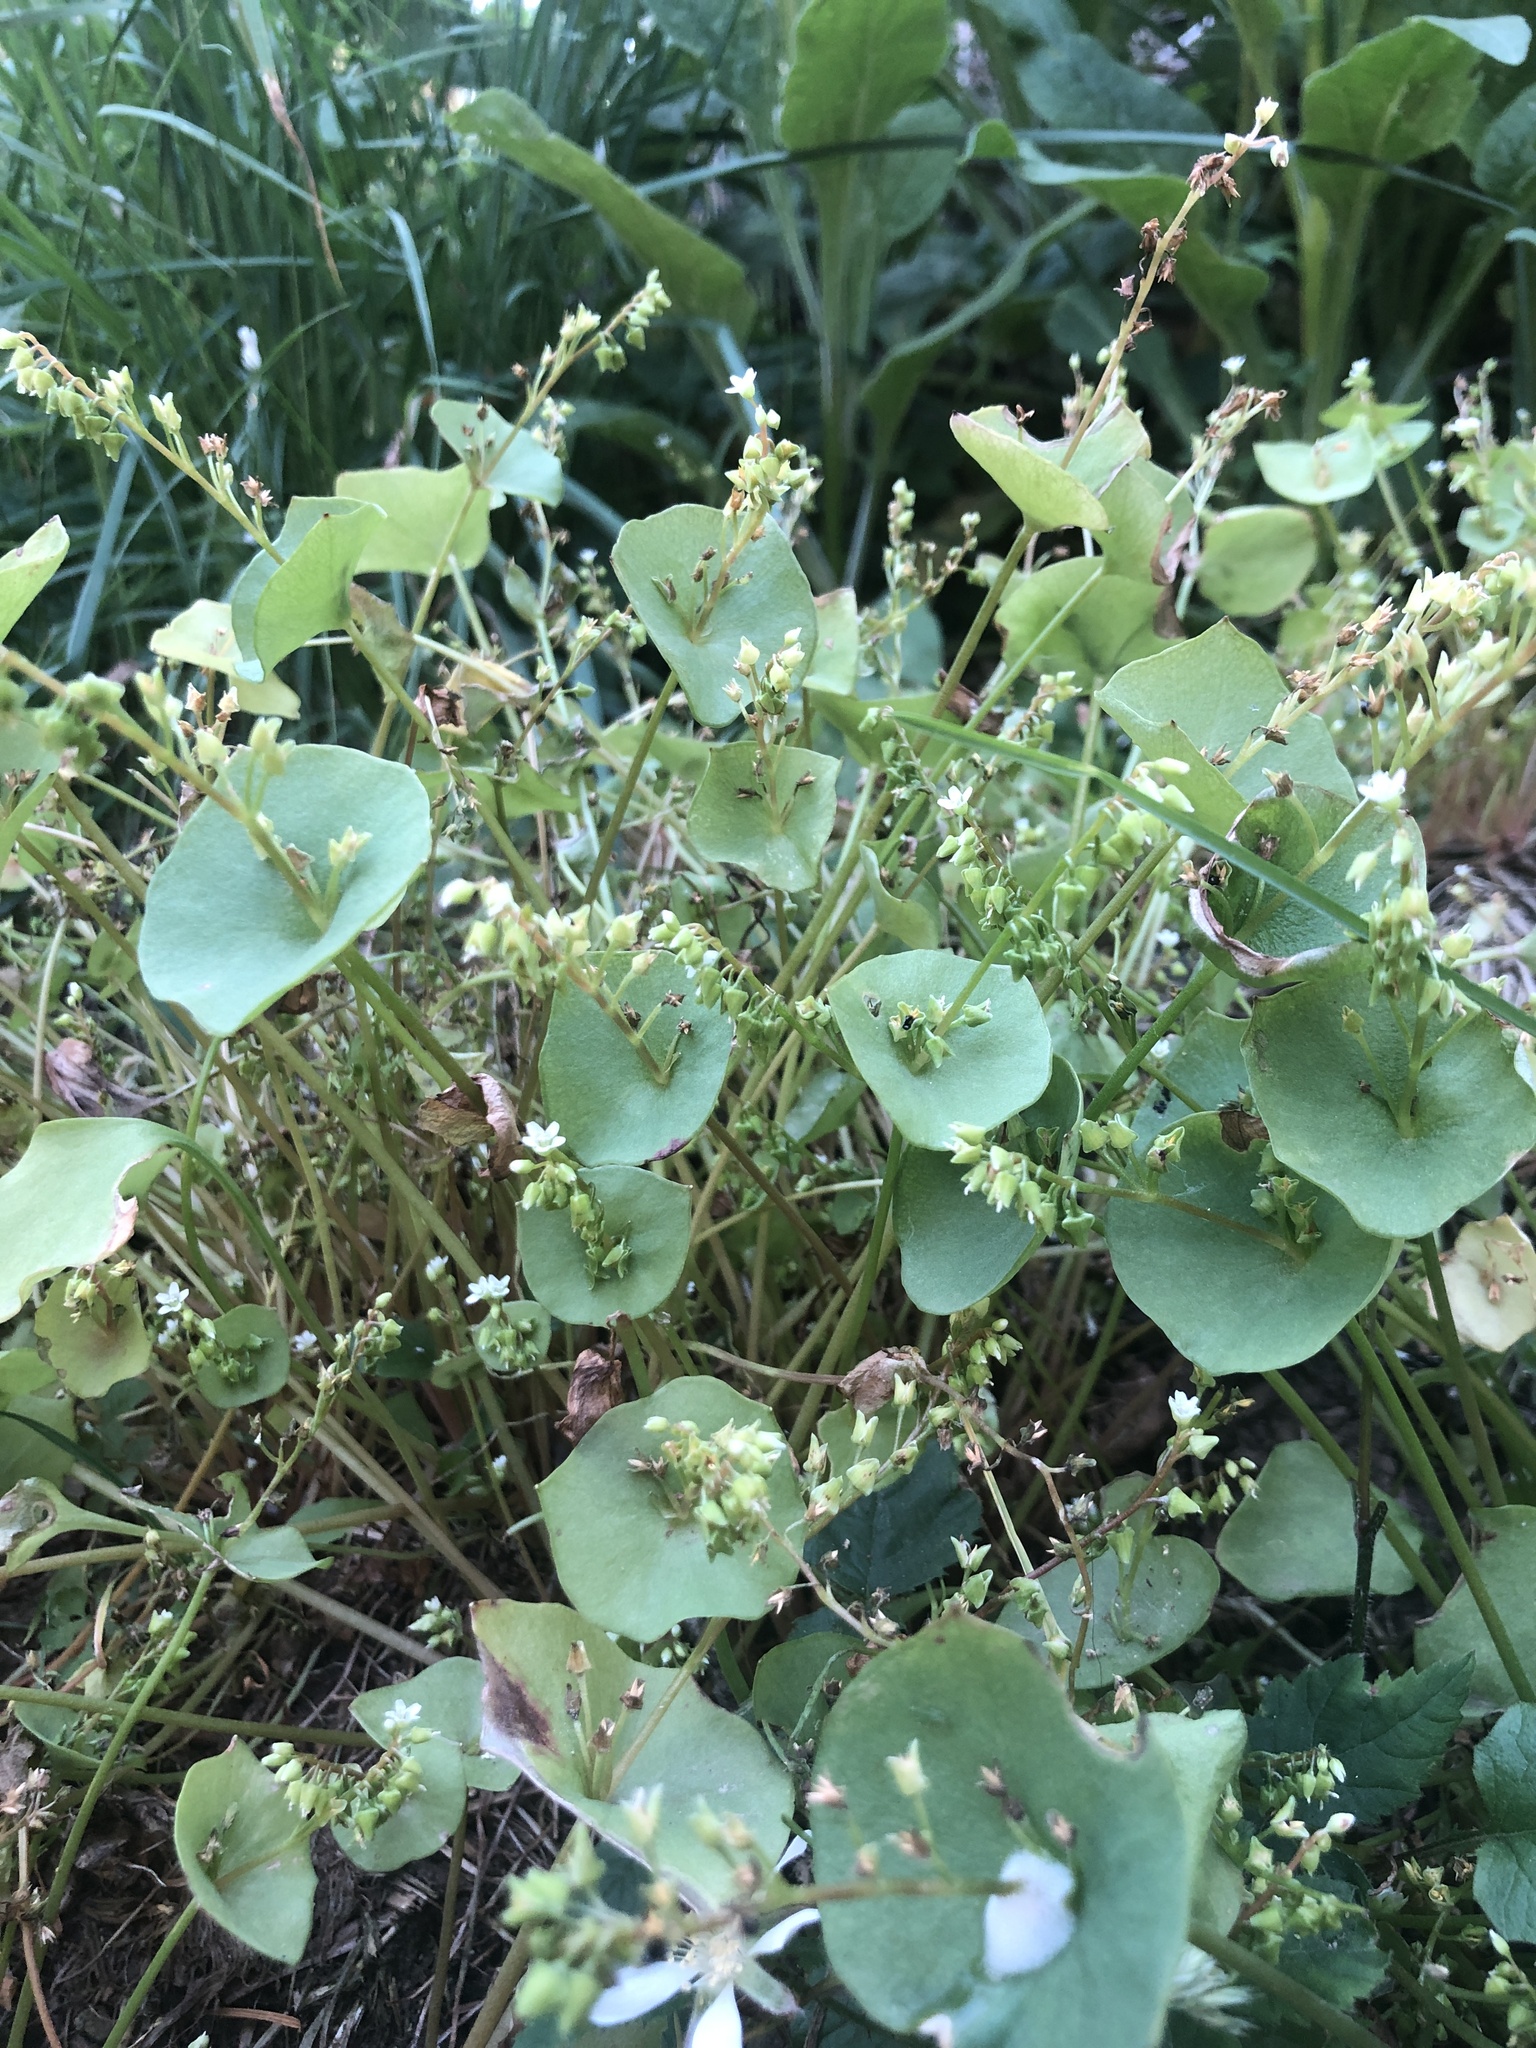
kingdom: Plantae
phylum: Tracheophyta
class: Magnoliopsida
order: Caryophyllales
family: Montiaceae
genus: Claytonia
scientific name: Claytonia perfoliata
